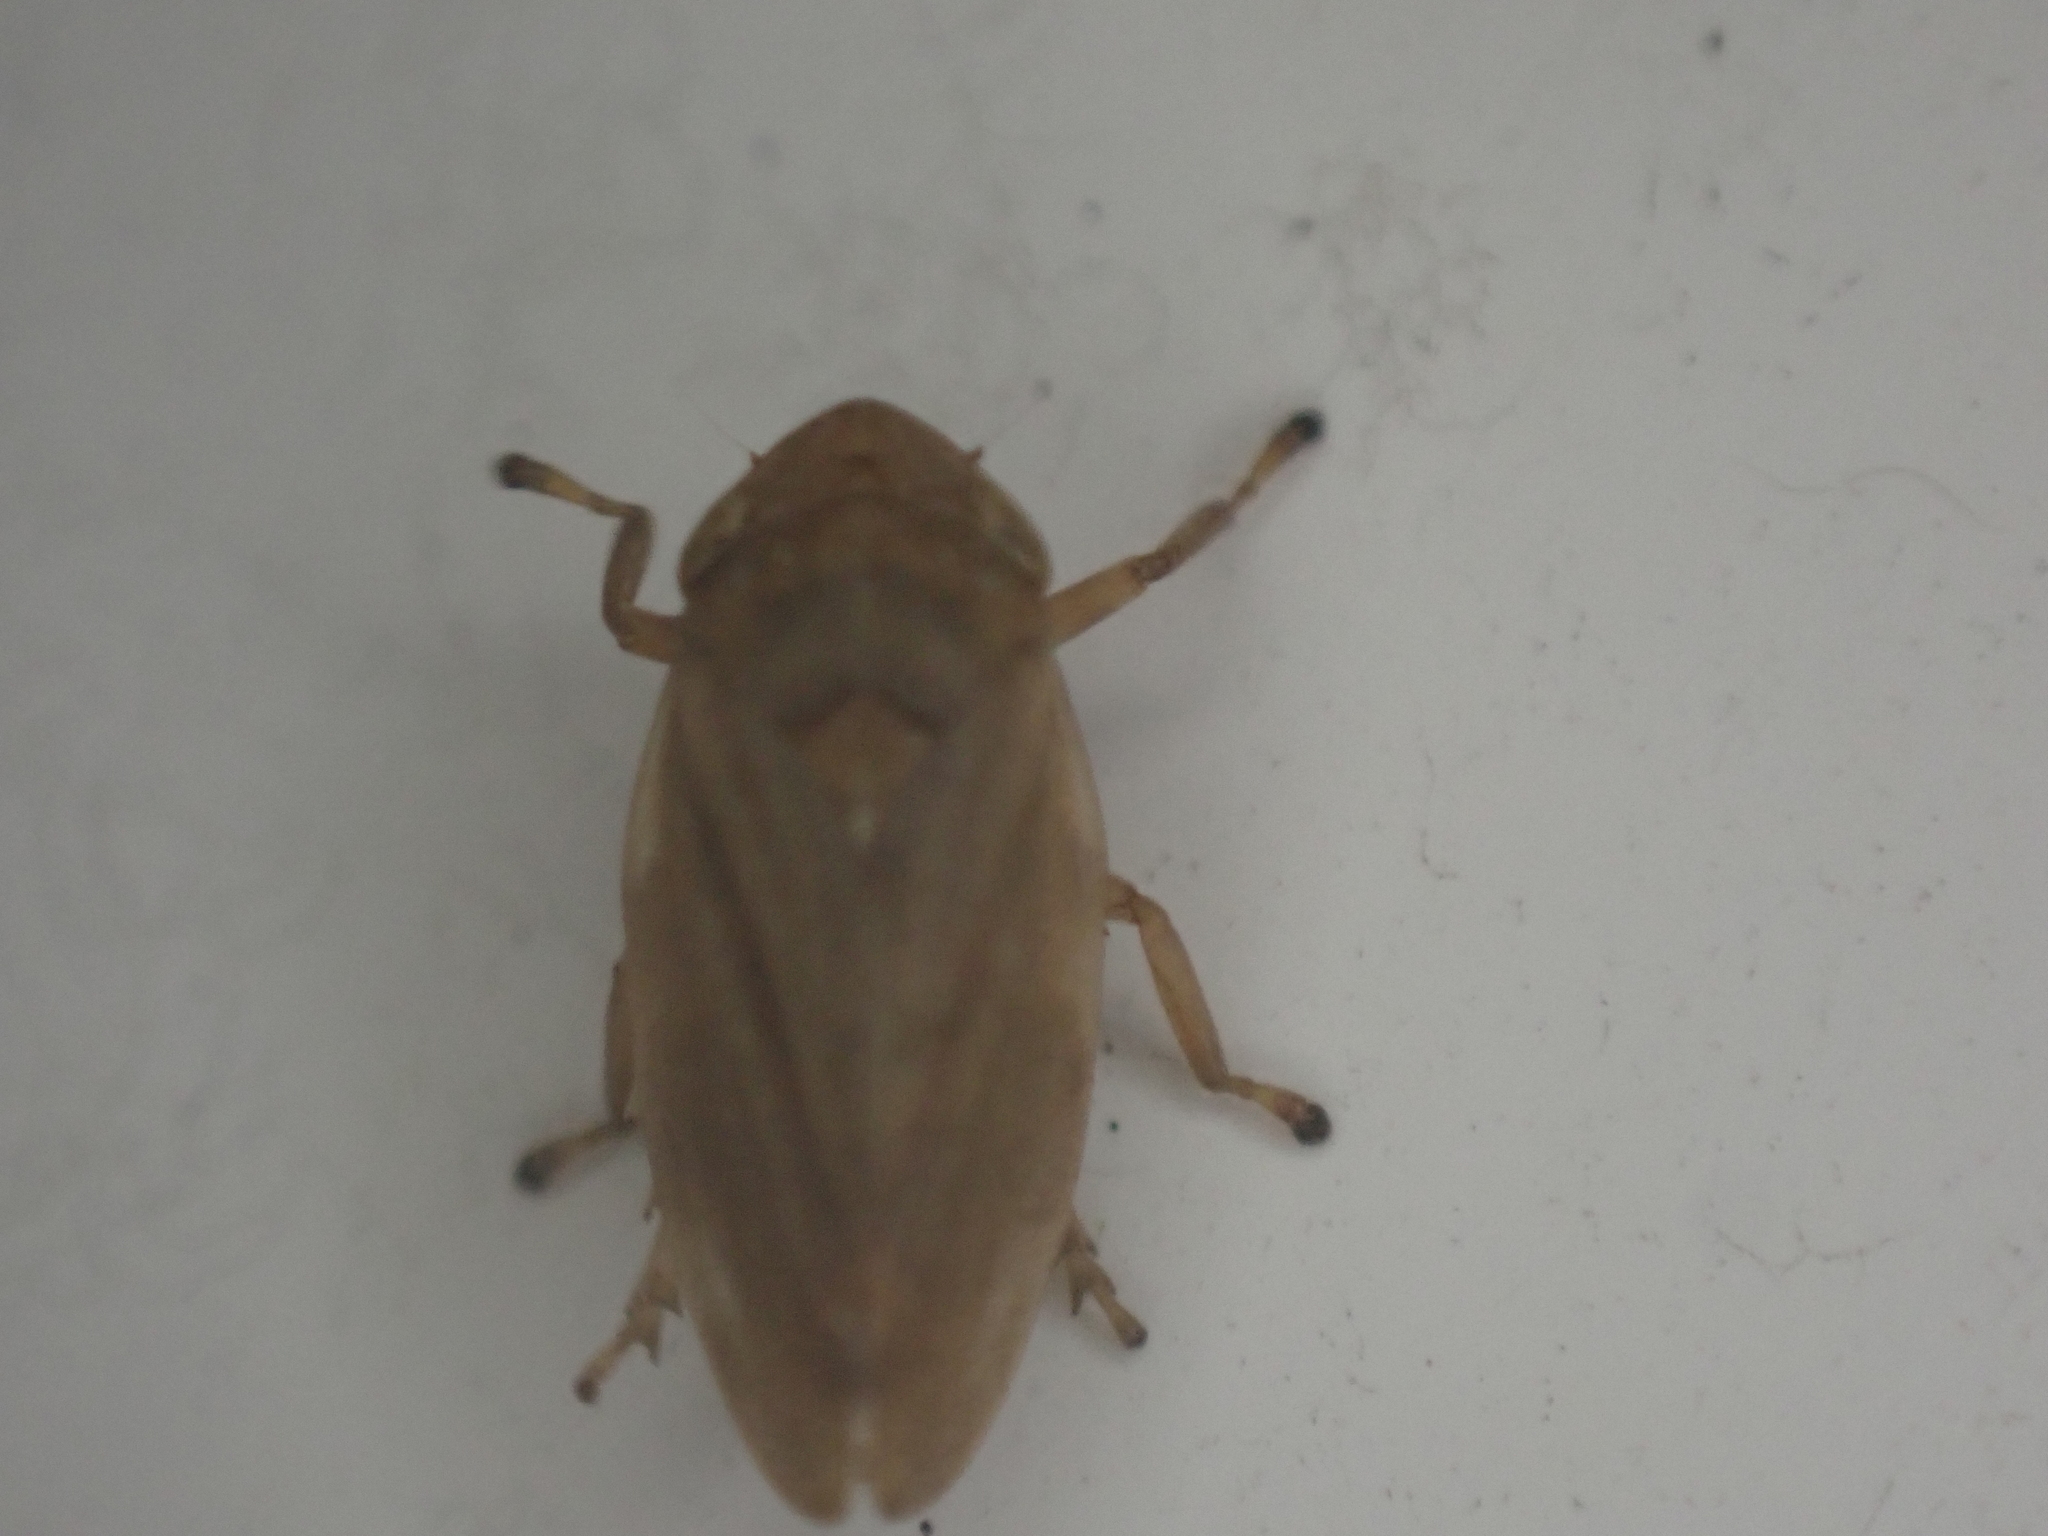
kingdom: Animalia
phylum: Arthropoda
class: Insecta
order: Hemiptera
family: Aphrophoridae
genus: Philaenus
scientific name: Philaenus spumarius
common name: Meadow spittlebug
